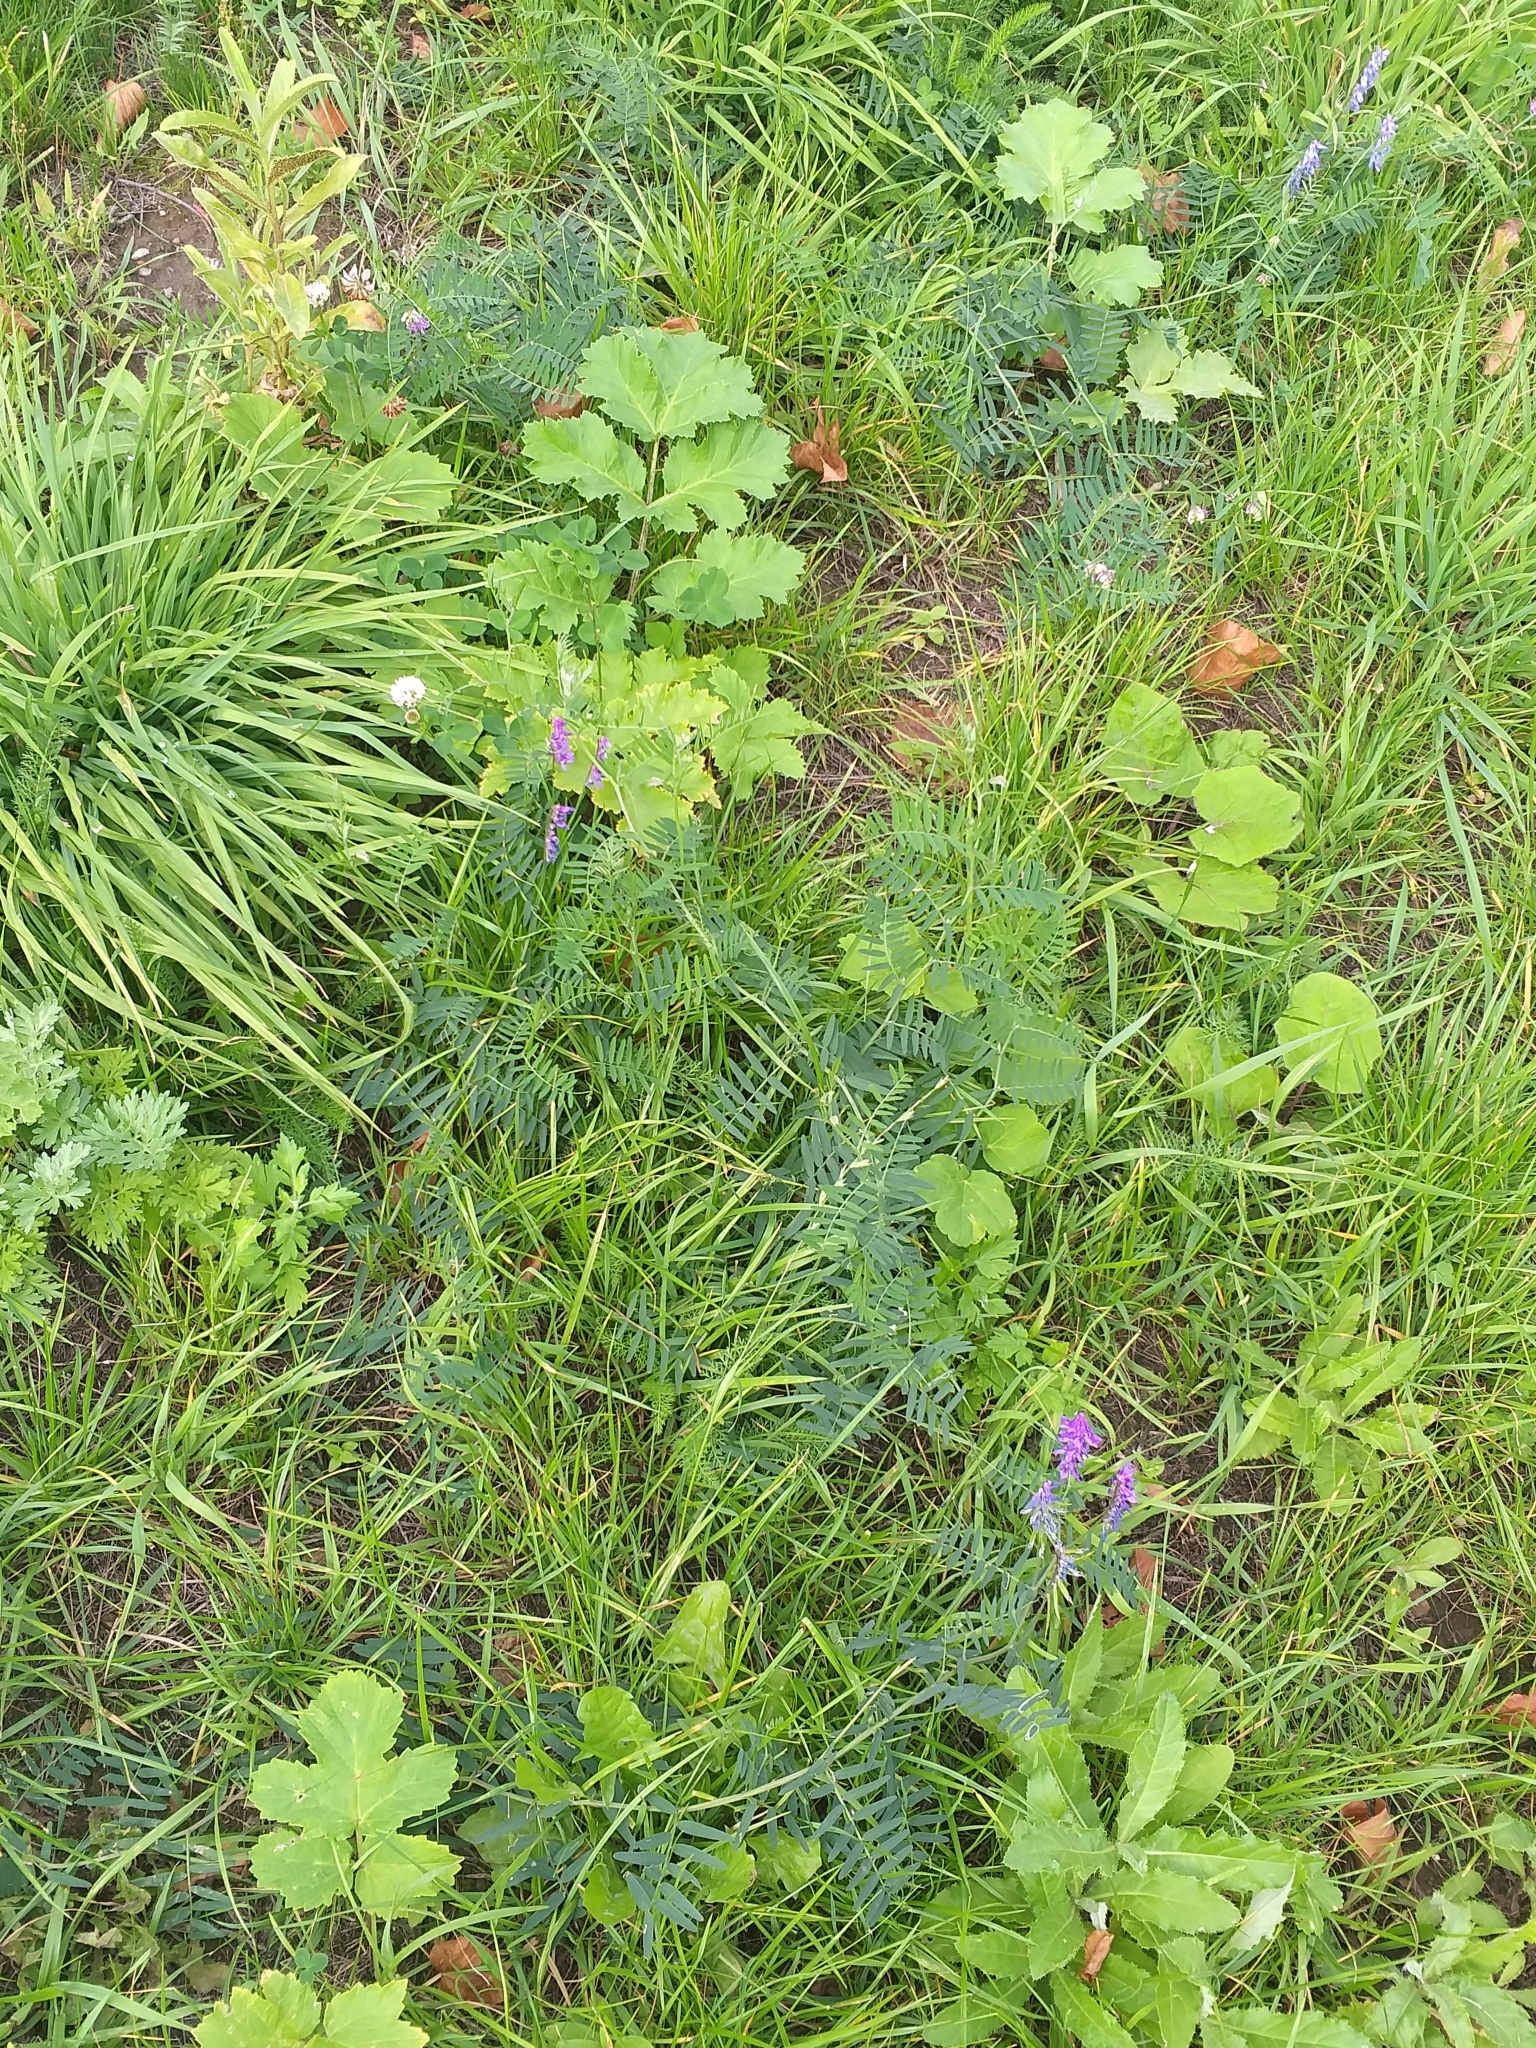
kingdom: Plantae
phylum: Tracheophyta
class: Magnoliopsida
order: Fabales
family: Fabaceae
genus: Vicia
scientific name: Vicia cracca
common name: Bird vetch
